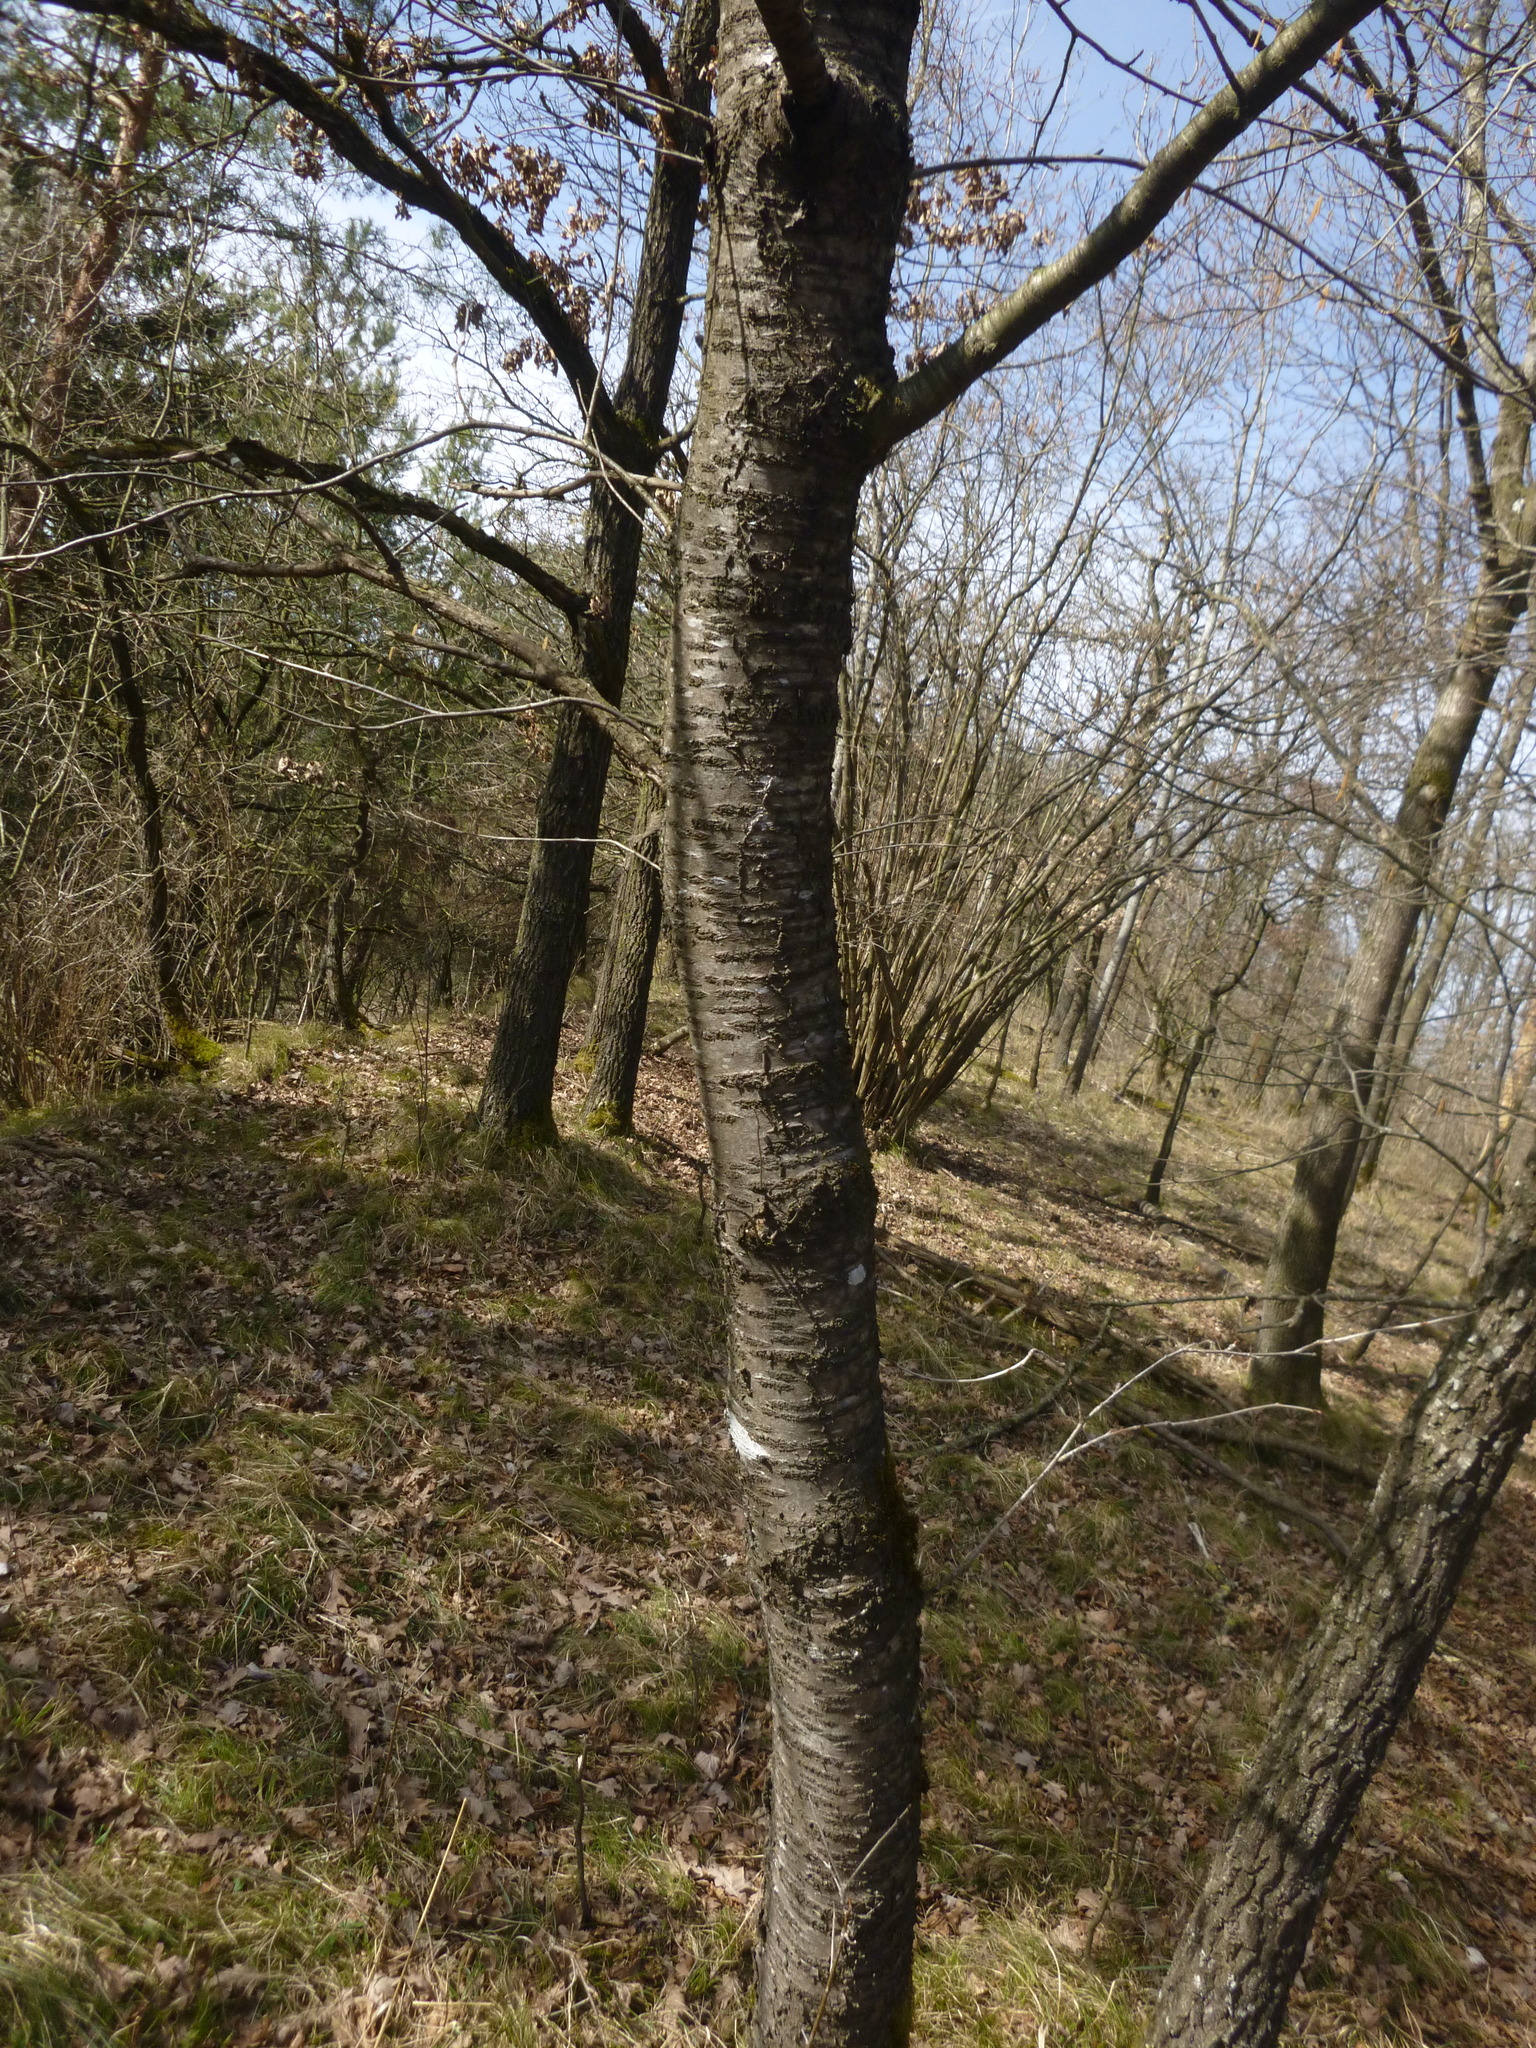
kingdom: Plantae
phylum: Tracheophyta
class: Magnoliopsida
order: Rosales
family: Rosaceae
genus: Prunus
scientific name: Prunus avium
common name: Sweet cherry
